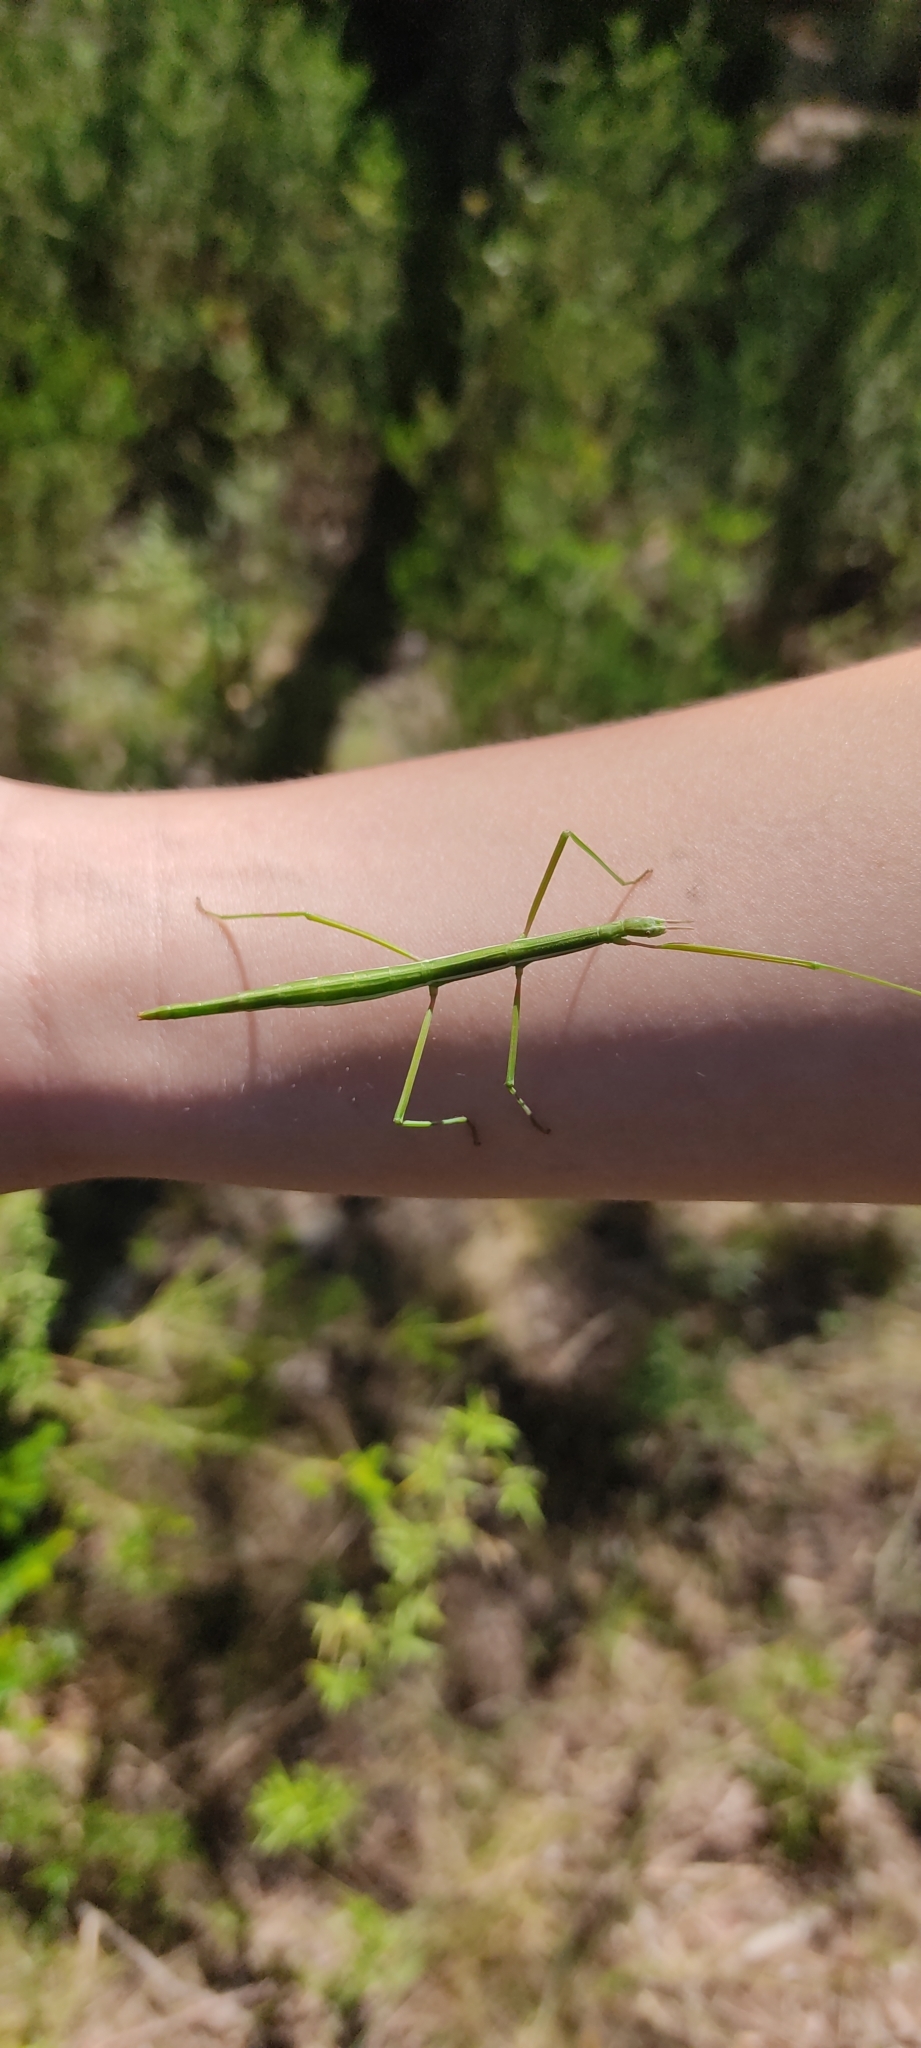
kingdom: Animalia
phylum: Arthropoda
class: Insecta
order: Phasmida
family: Bacillidae
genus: Pijnackeria
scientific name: Pijnackeria masettii
